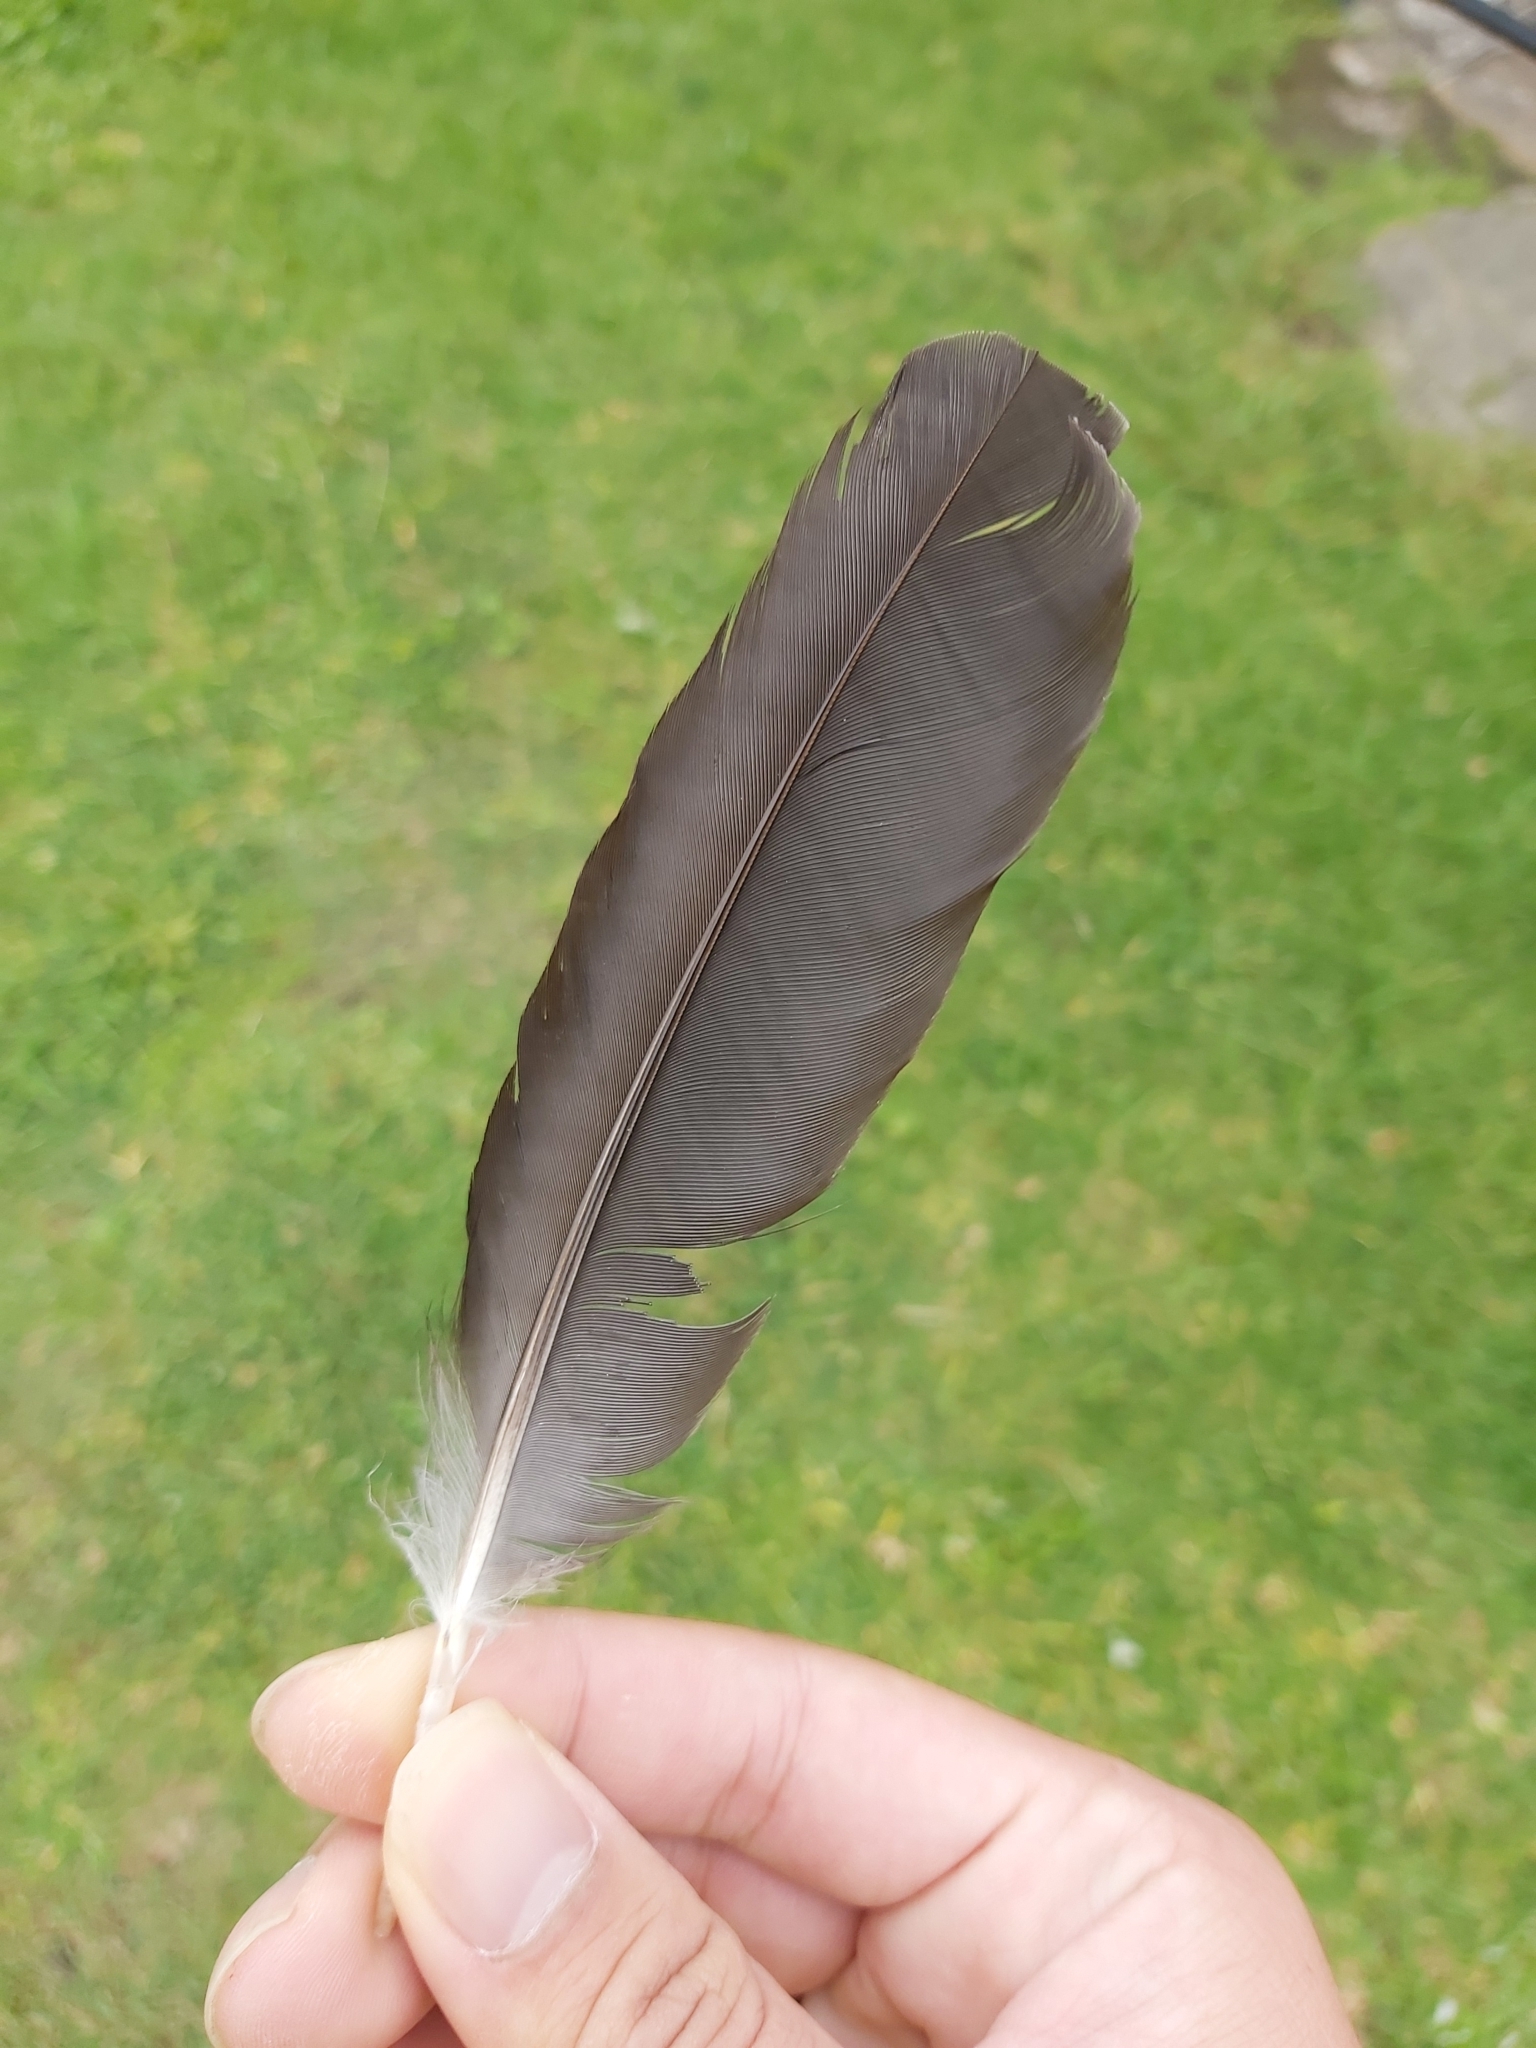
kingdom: Animalia
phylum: Chordata
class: Aves
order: Passeriformes
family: Cracticidae
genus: Gymnorhina
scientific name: Gymnorhina tibicen
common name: Australian magpie
